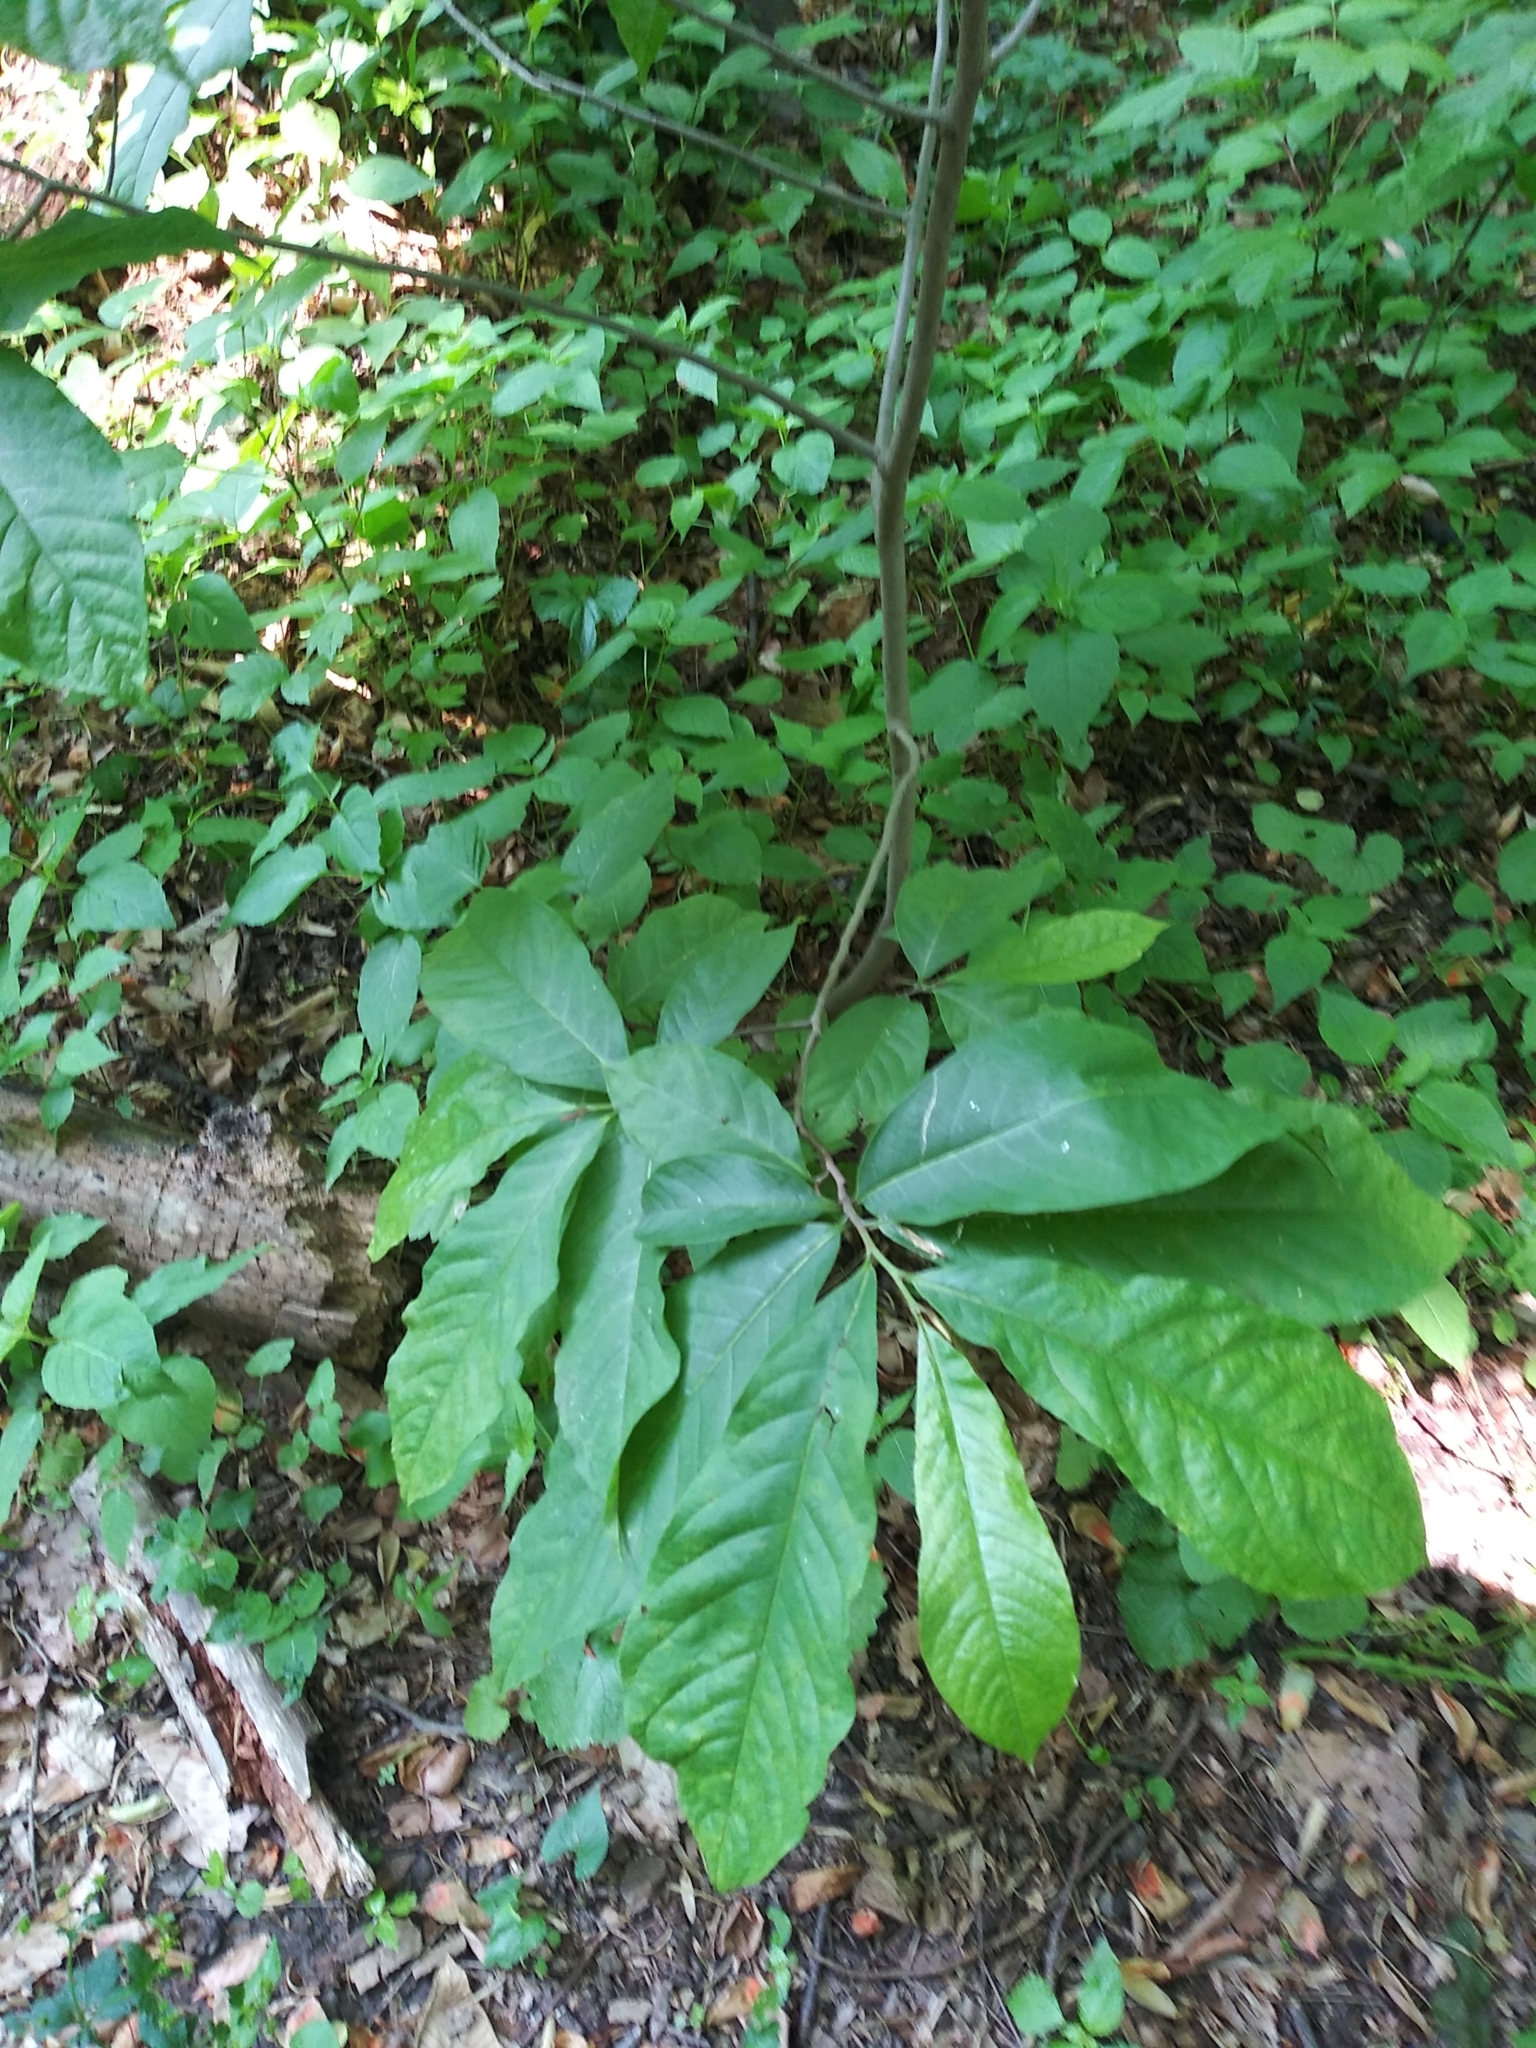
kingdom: Plantae
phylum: Tracheophyta
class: Magnoliopsida
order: Magnoliales
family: Annonaceae
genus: Asimina
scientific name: Asimina triloba
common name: Dog-banana
